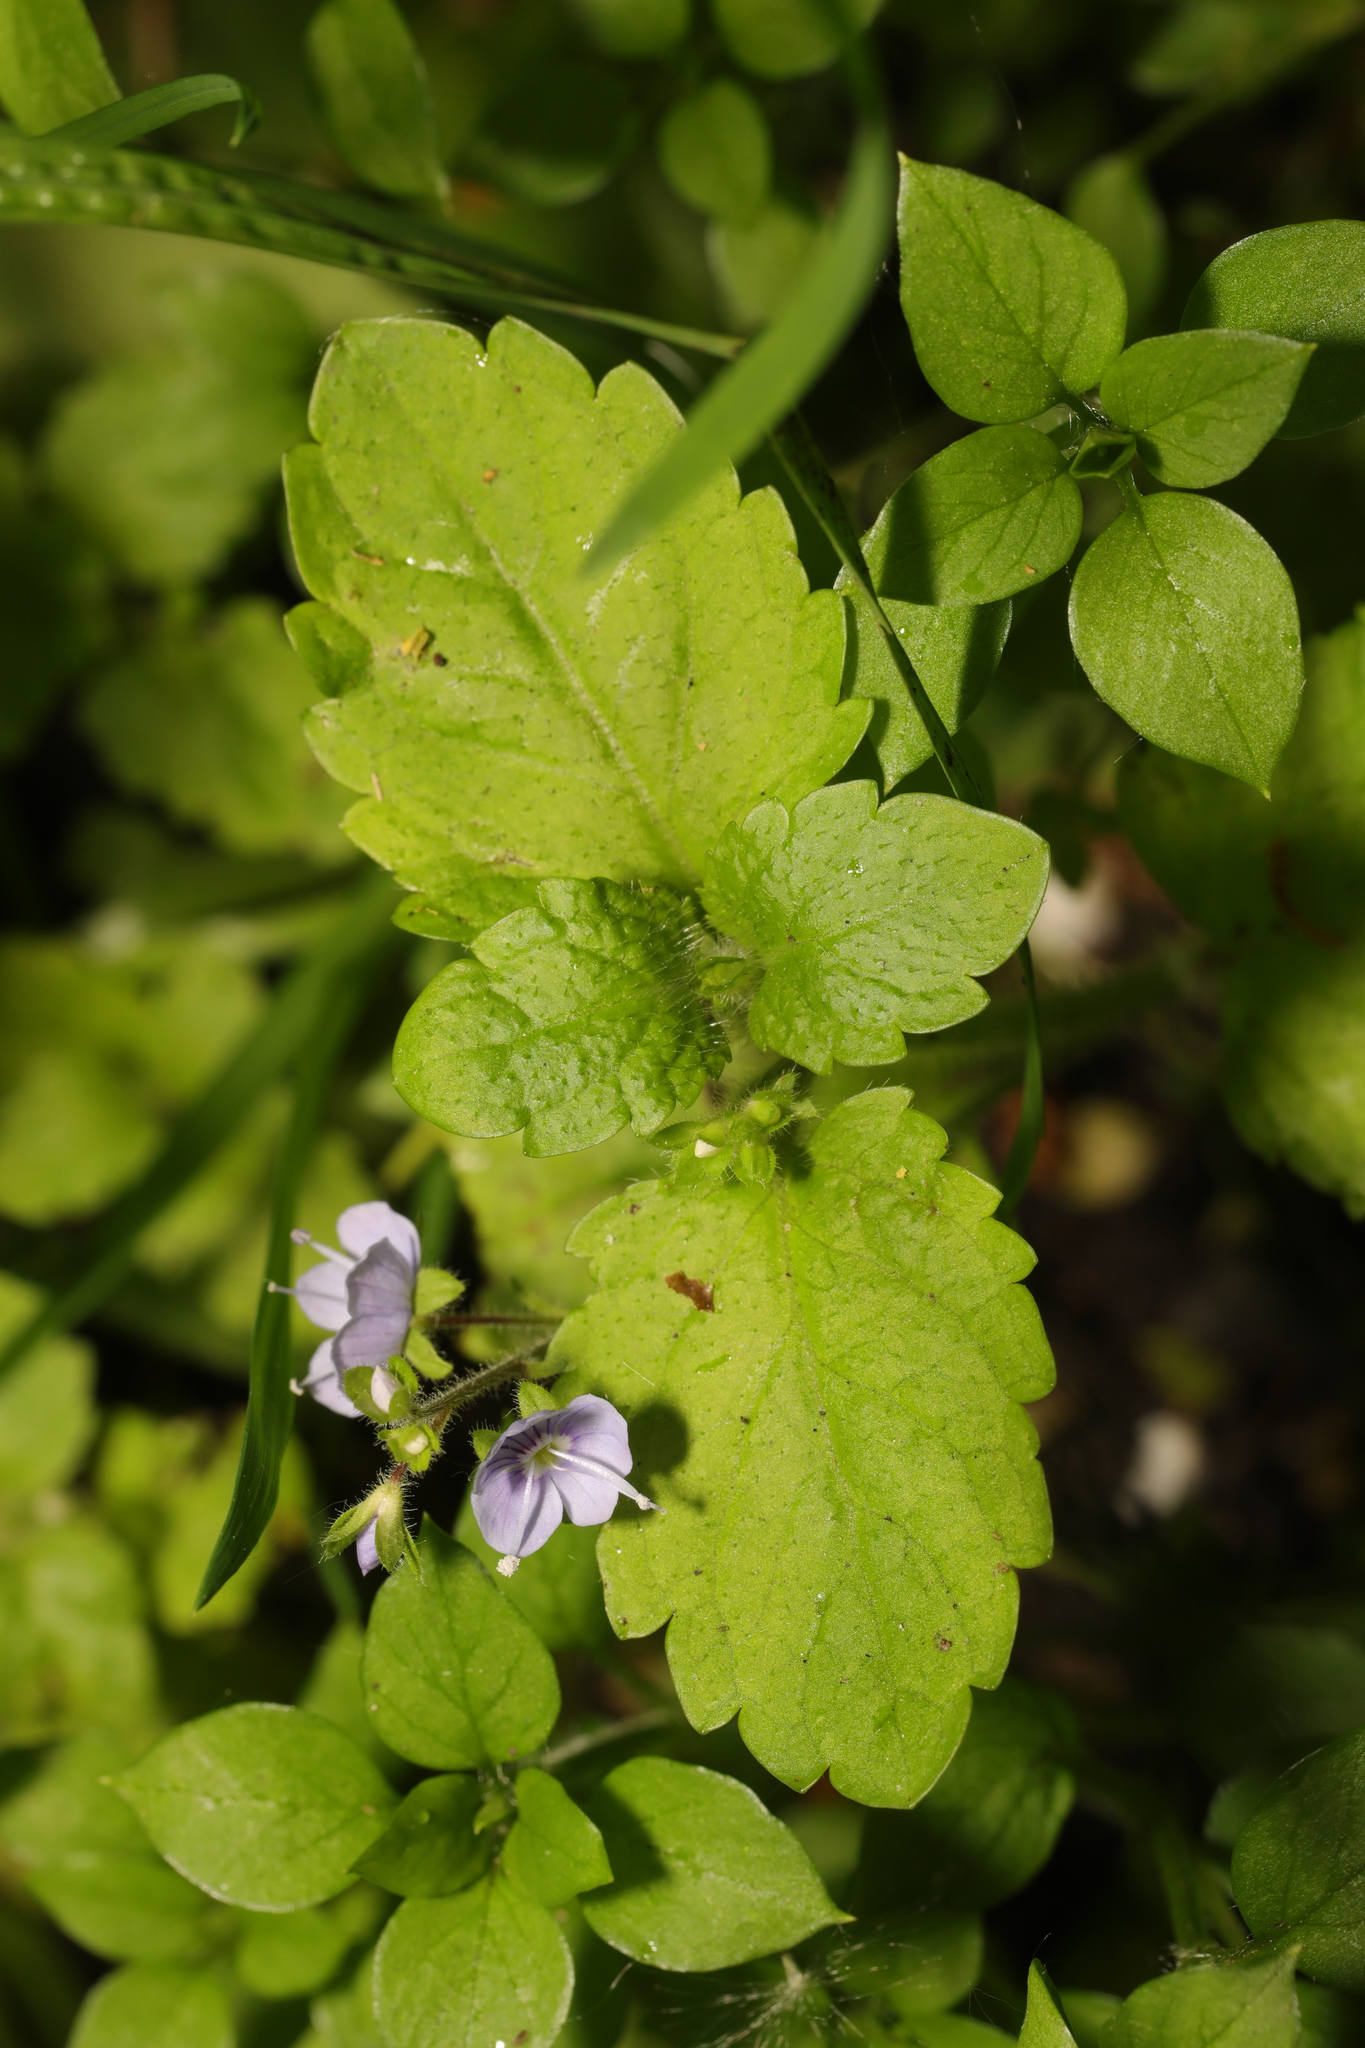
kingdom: Plantae
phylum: Tracheophyta
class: Magnoliopsida
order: Lamiales
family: Plantaginaceae
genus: Veronica
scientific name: Veronica montana
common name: Wood speedwell
